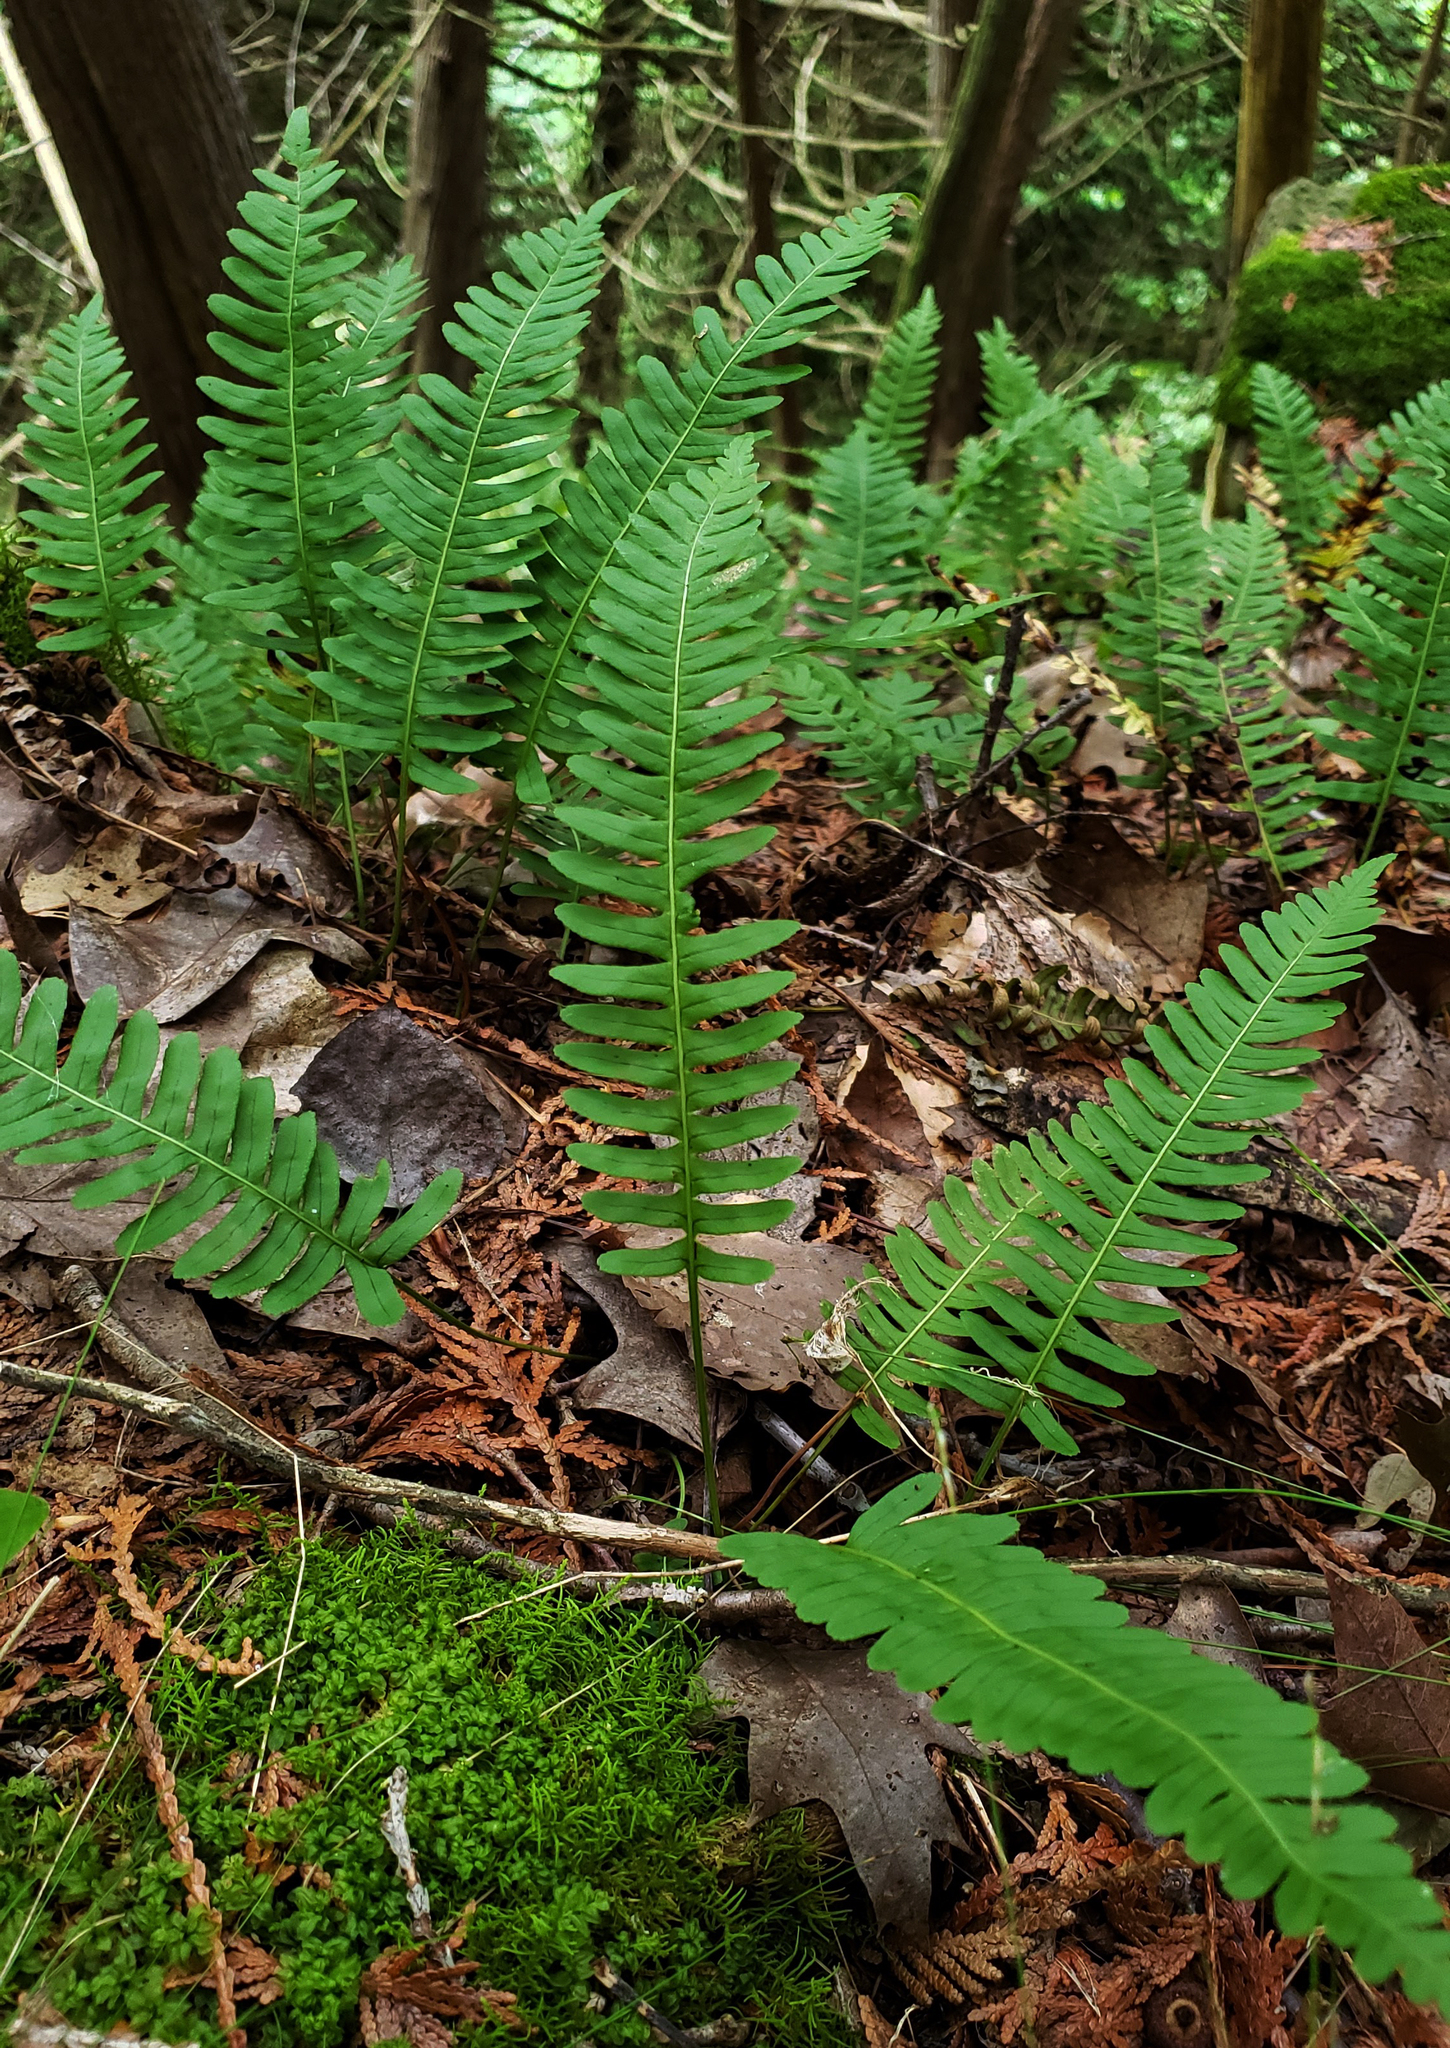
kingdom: Plantae
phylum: Tracheophyta
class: Polypodiopsida
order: Polypodiales
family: Polypodiaceae
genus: Polypodium
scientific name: Polypodium virginianum
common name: American wall fern
